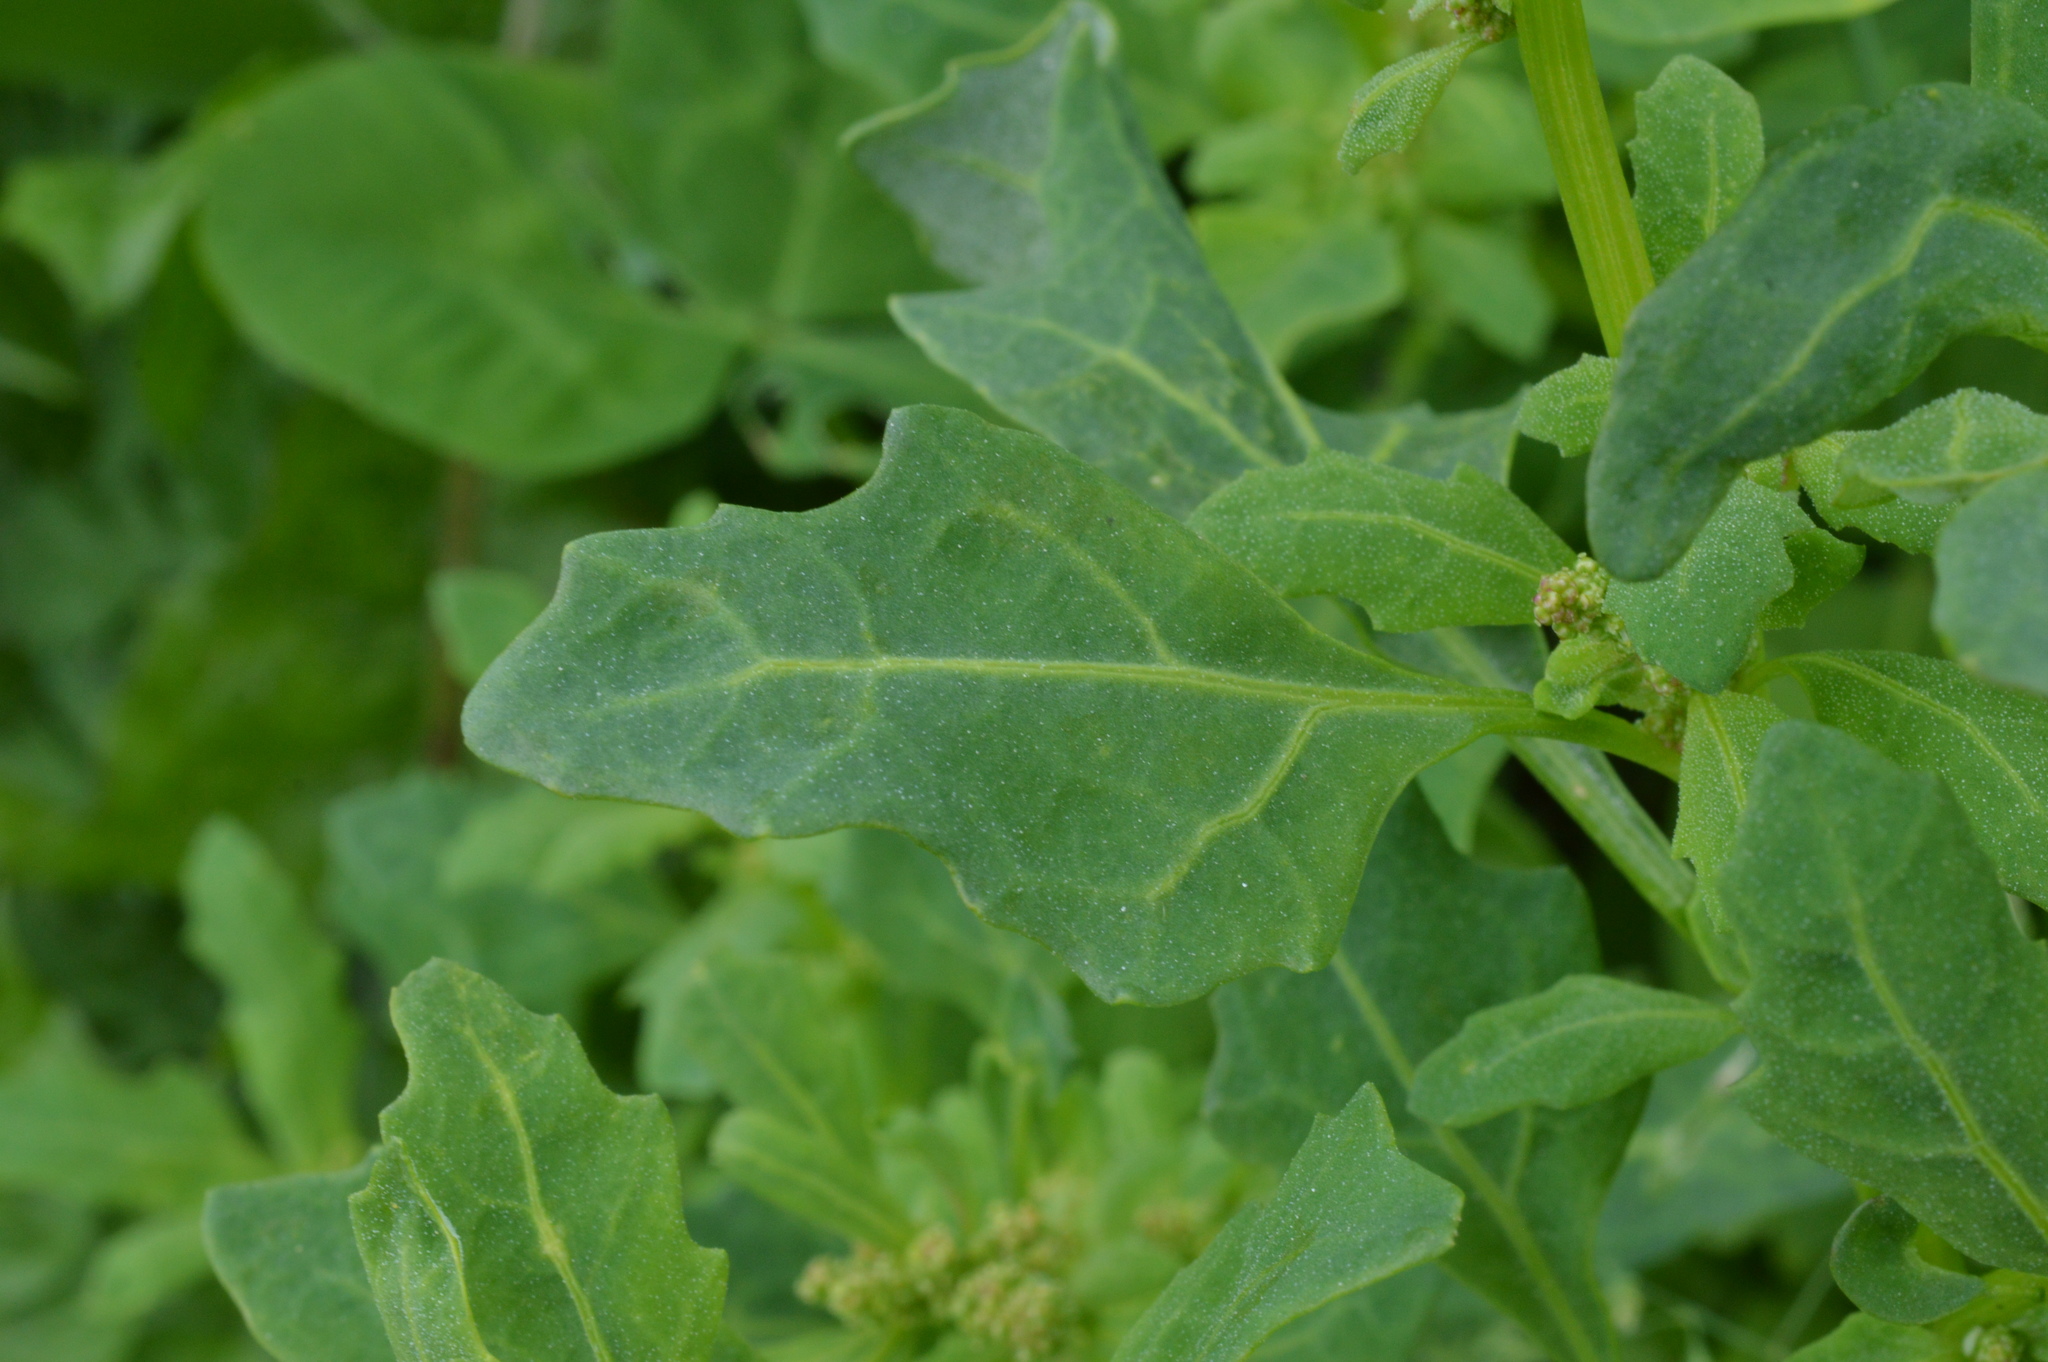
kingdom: Plantae
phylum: Tracheophyta
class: Magnoliopsida
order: Caryophyllales
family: Amaranthaceae
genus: Oxybasis
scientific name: Oxybasis glauca
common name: Glaucous goosefoot
